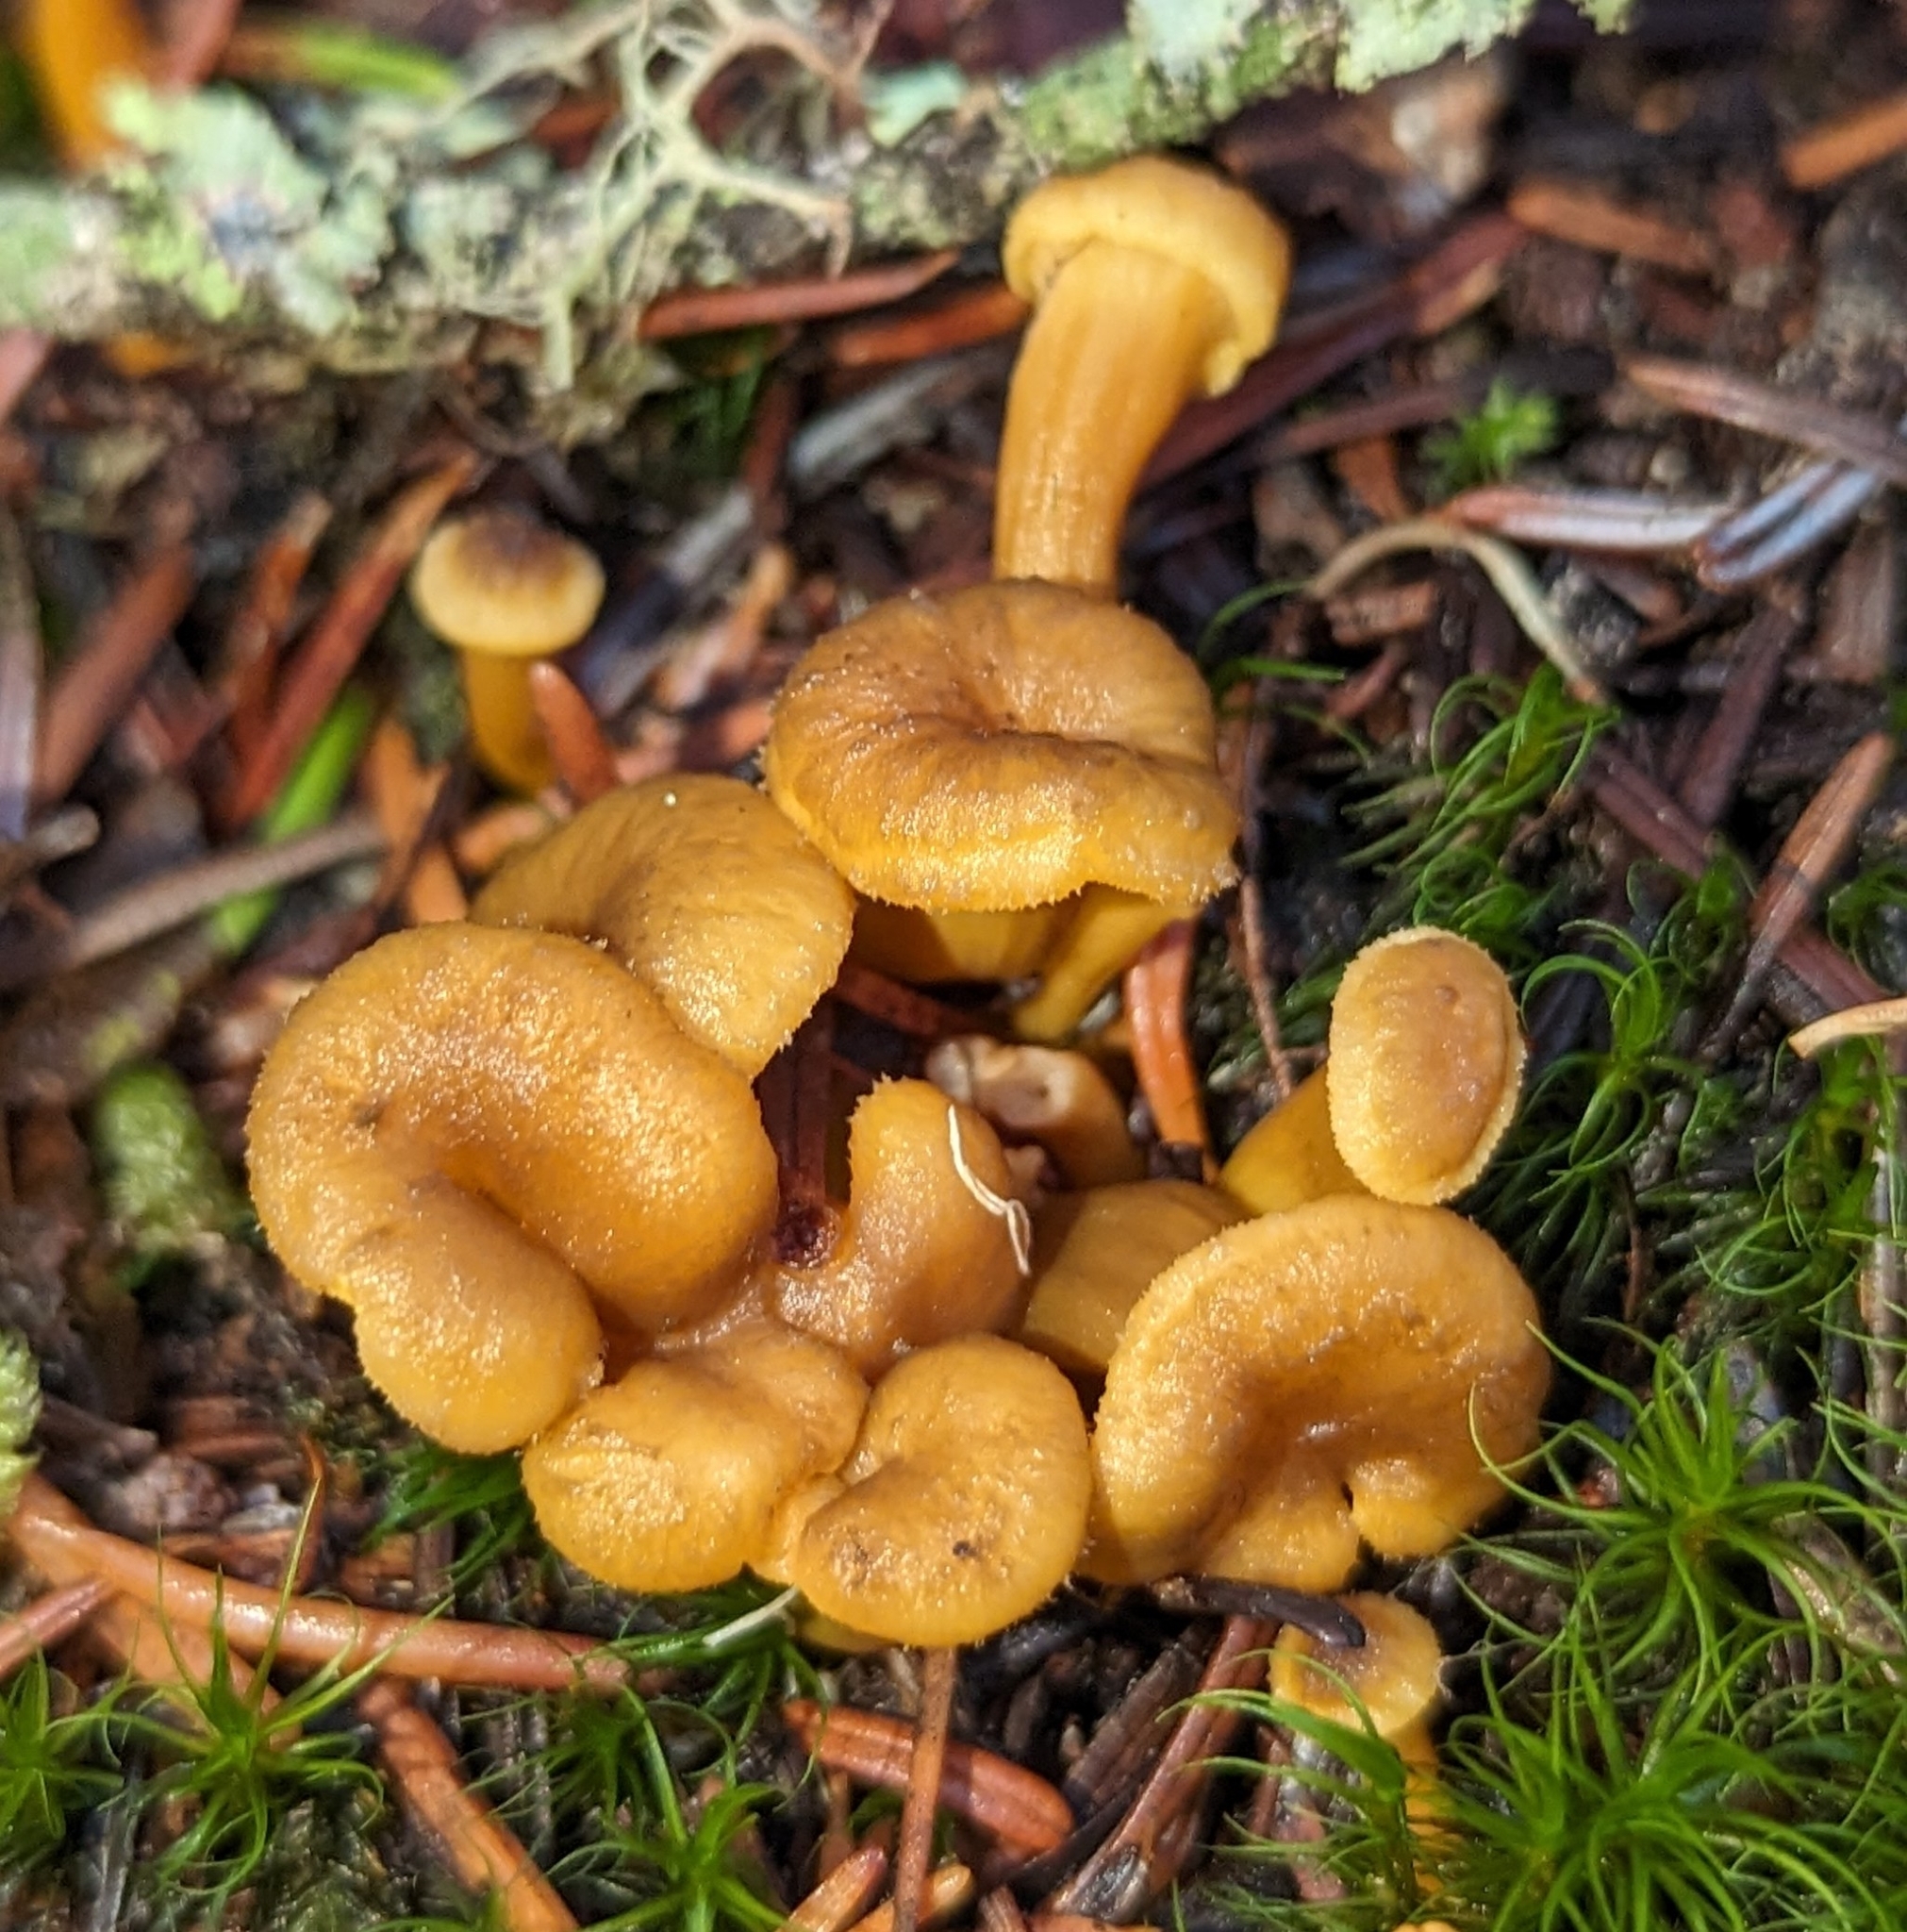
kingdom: Fungi
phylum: Basidiomycota
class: Agaricomycetes
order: Cantharellales
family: Hydnaceae
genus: Craterellus
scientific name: Craterellus tubaeformis
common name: Yellowfoot
